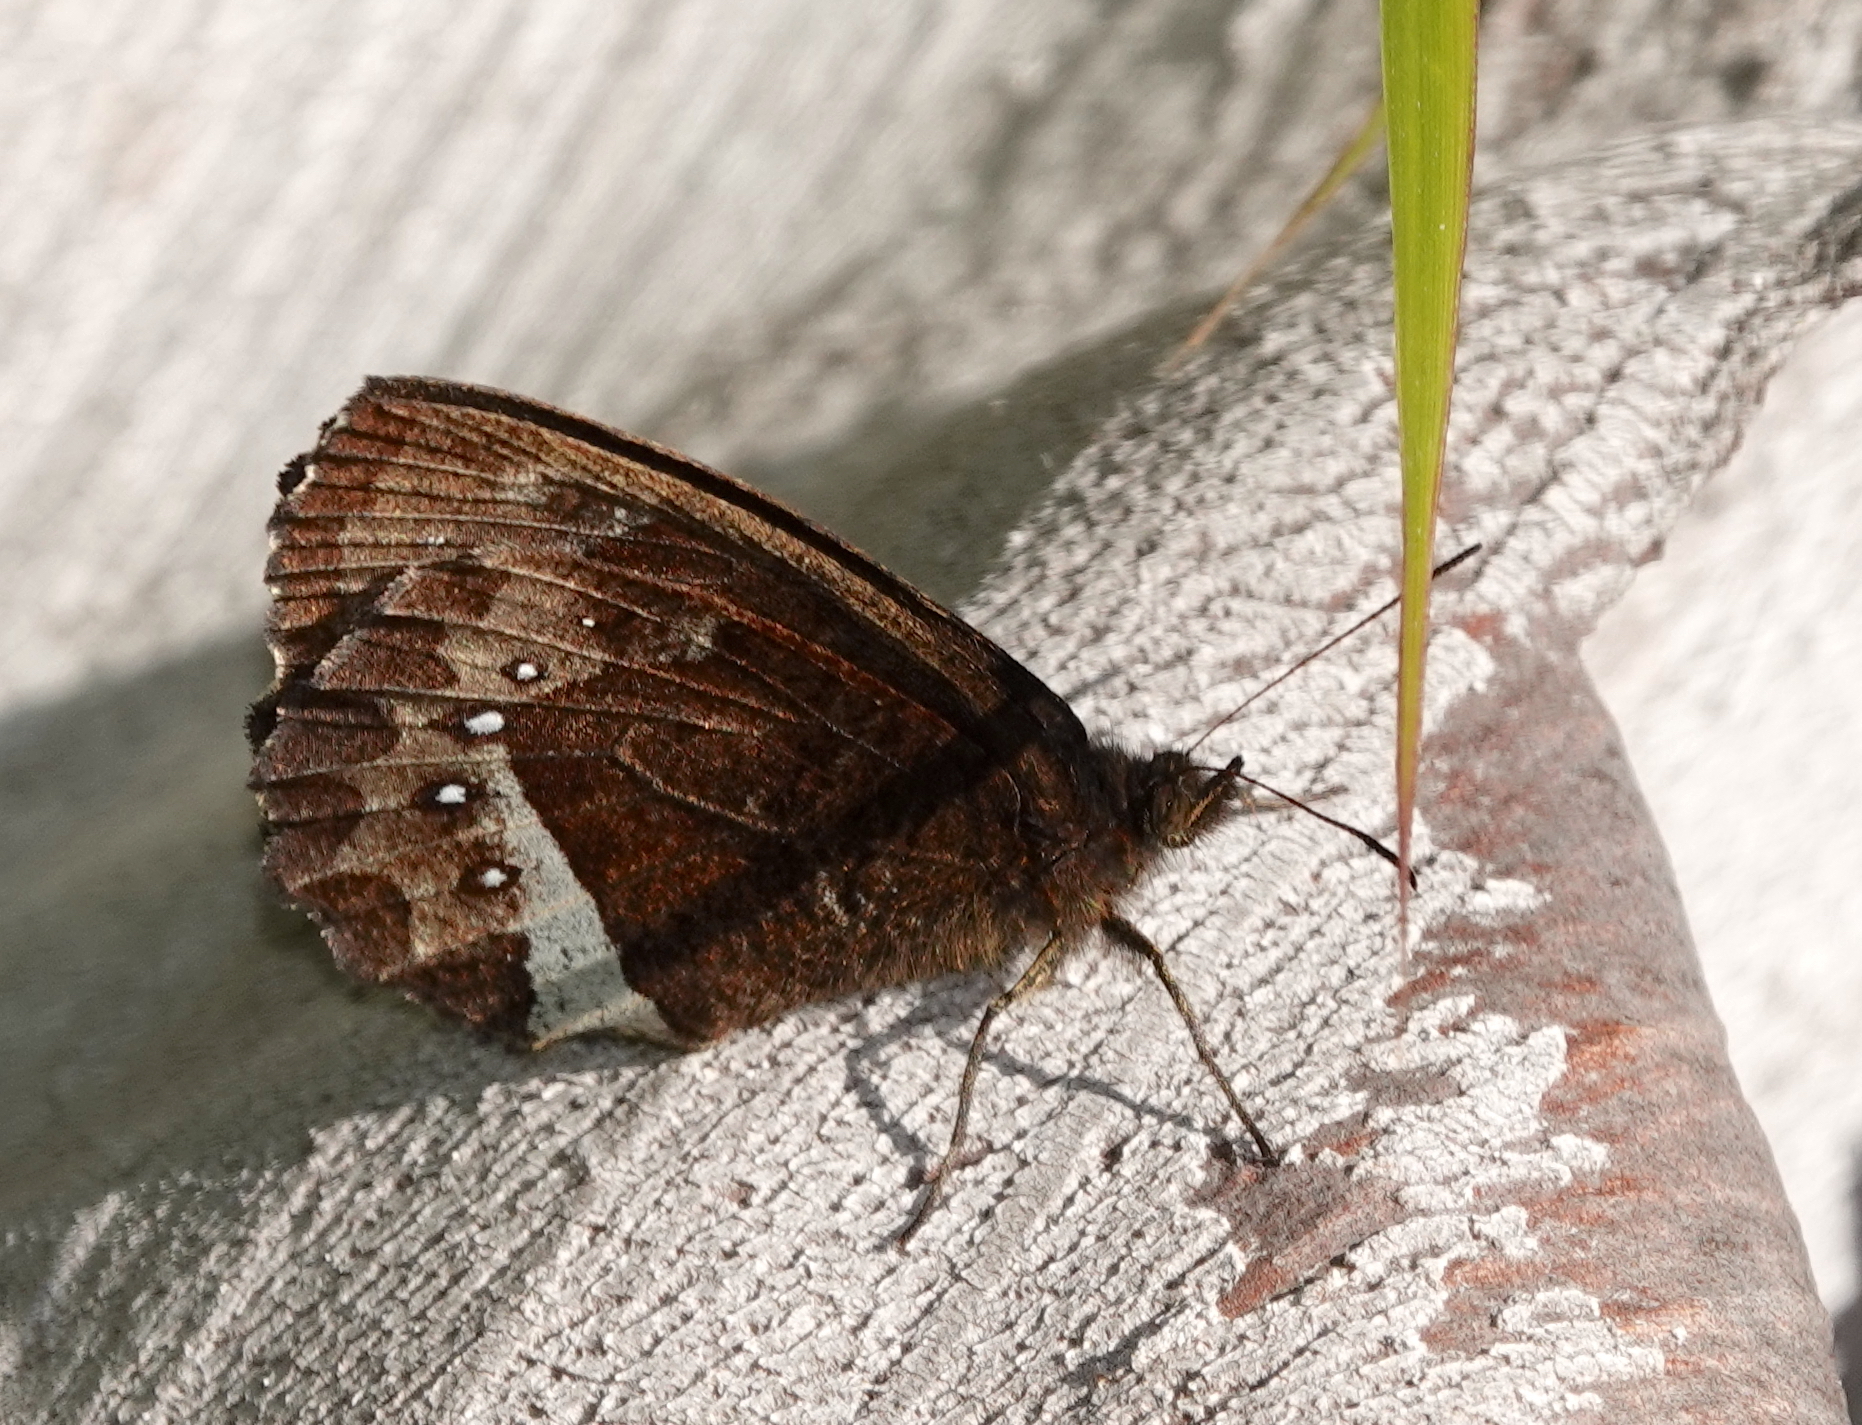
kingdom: Animalia
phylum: Arthropoda
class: Insecta
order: Lepidoptera
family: Nymphalidae
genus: Pedaliodes
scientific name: Pedaliodes phazania
